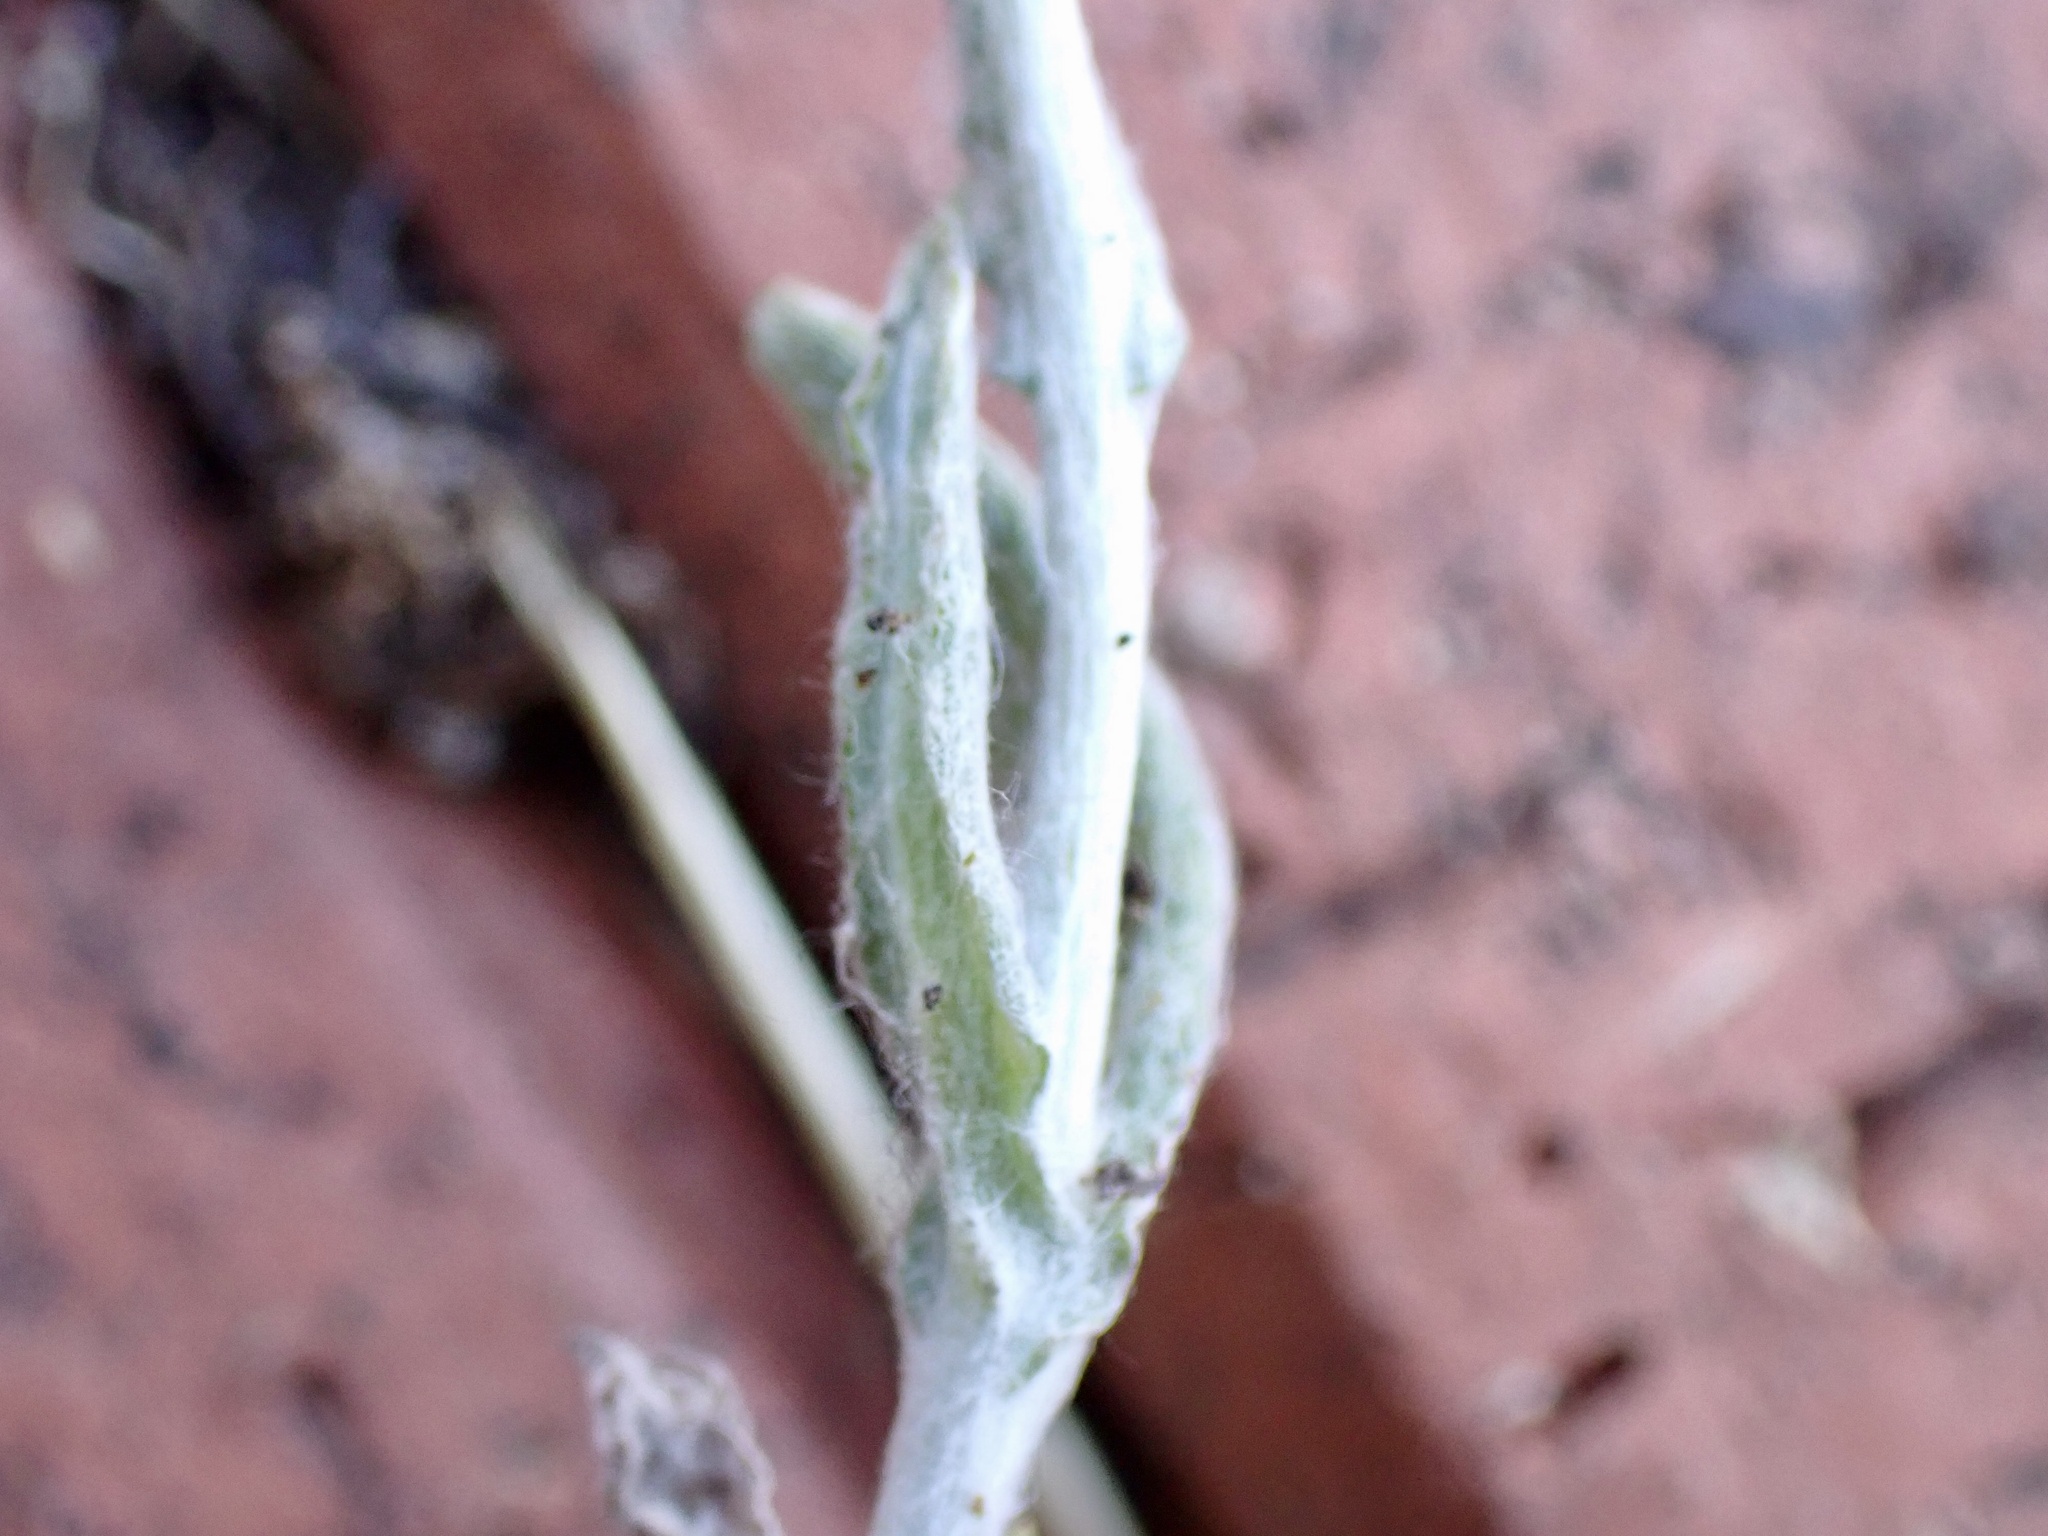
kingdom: Plantae
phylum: Tracheophyta
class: Magnoliopsida
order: Asterales
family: Asteraceae
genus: Helichrysum
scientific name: Helichrysum luteoalbum
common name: Daisy
